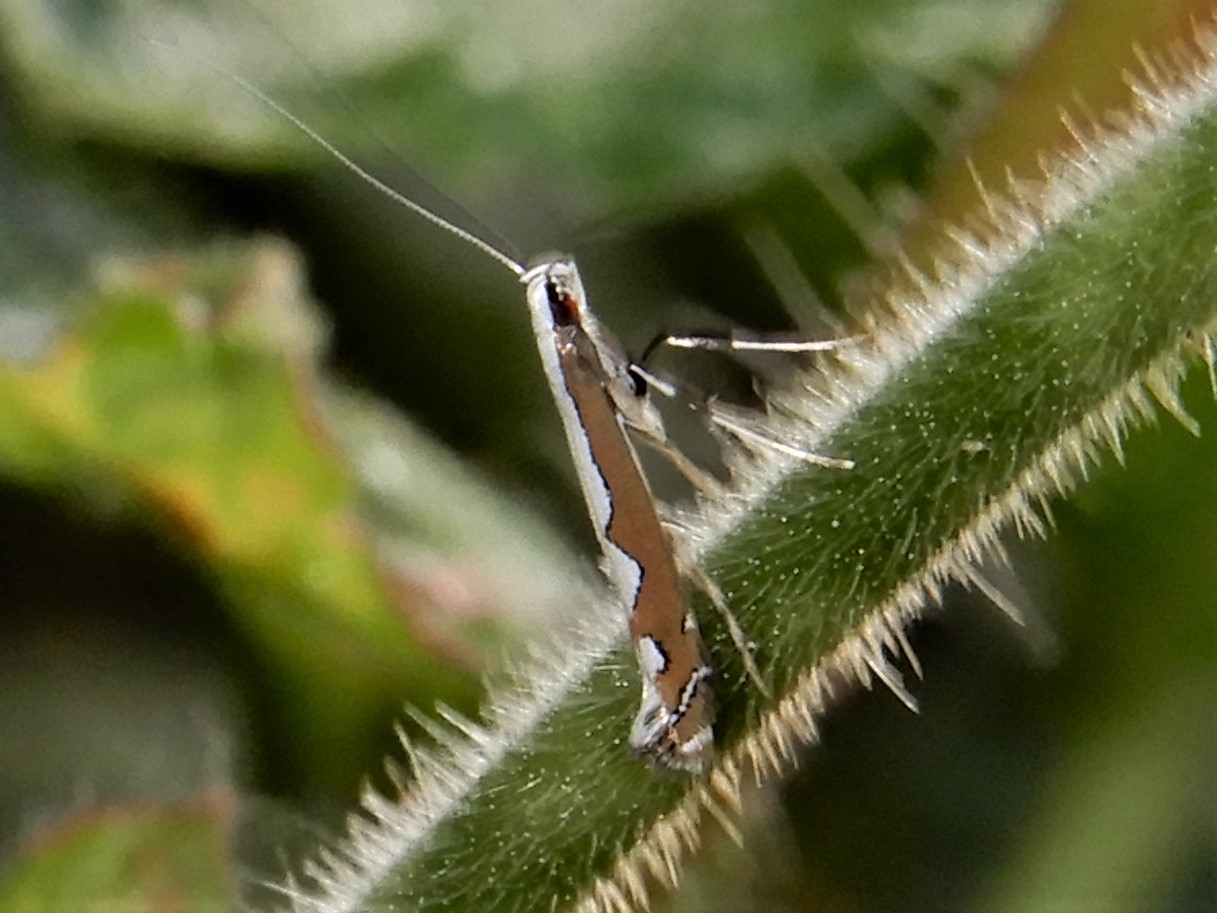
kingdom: Animalia
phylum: Arthropoda
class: Insecta
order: Lepidoptera
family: Gracillariidae
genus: Dialectica
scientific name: Dialectica scalariella
